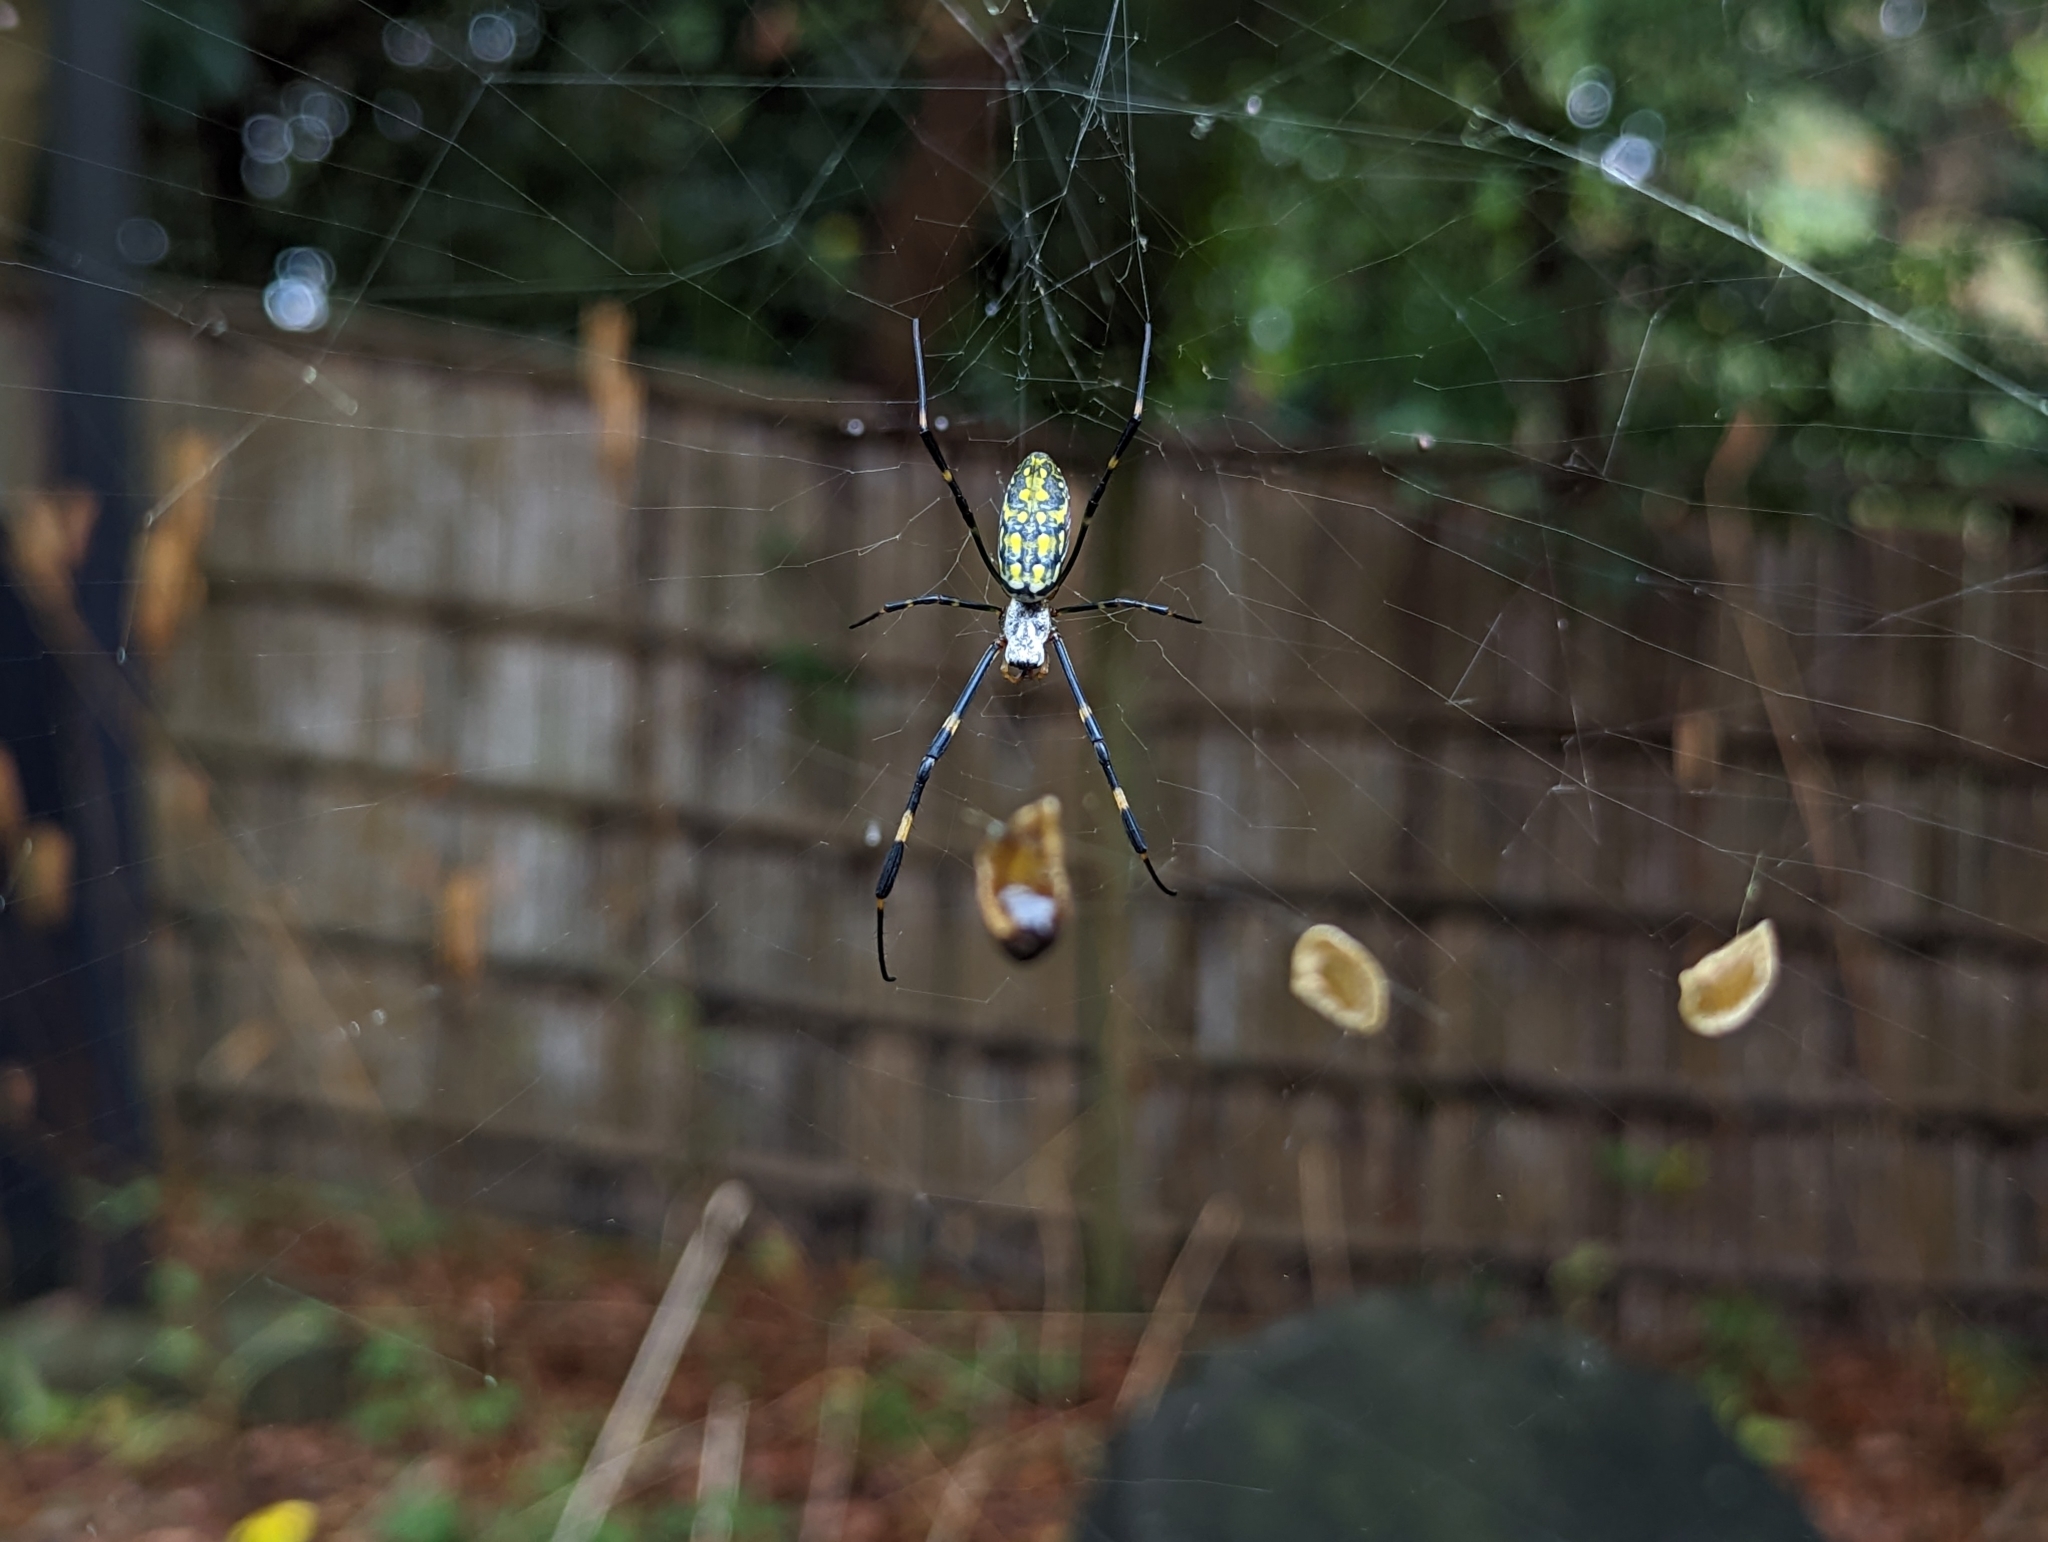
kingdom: Animalia
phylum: Arthropoda
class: Arachnida
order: Araneae
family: Araneidae
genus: Trichonephila
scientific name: Trichonephila clavata
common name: Jorō spider
